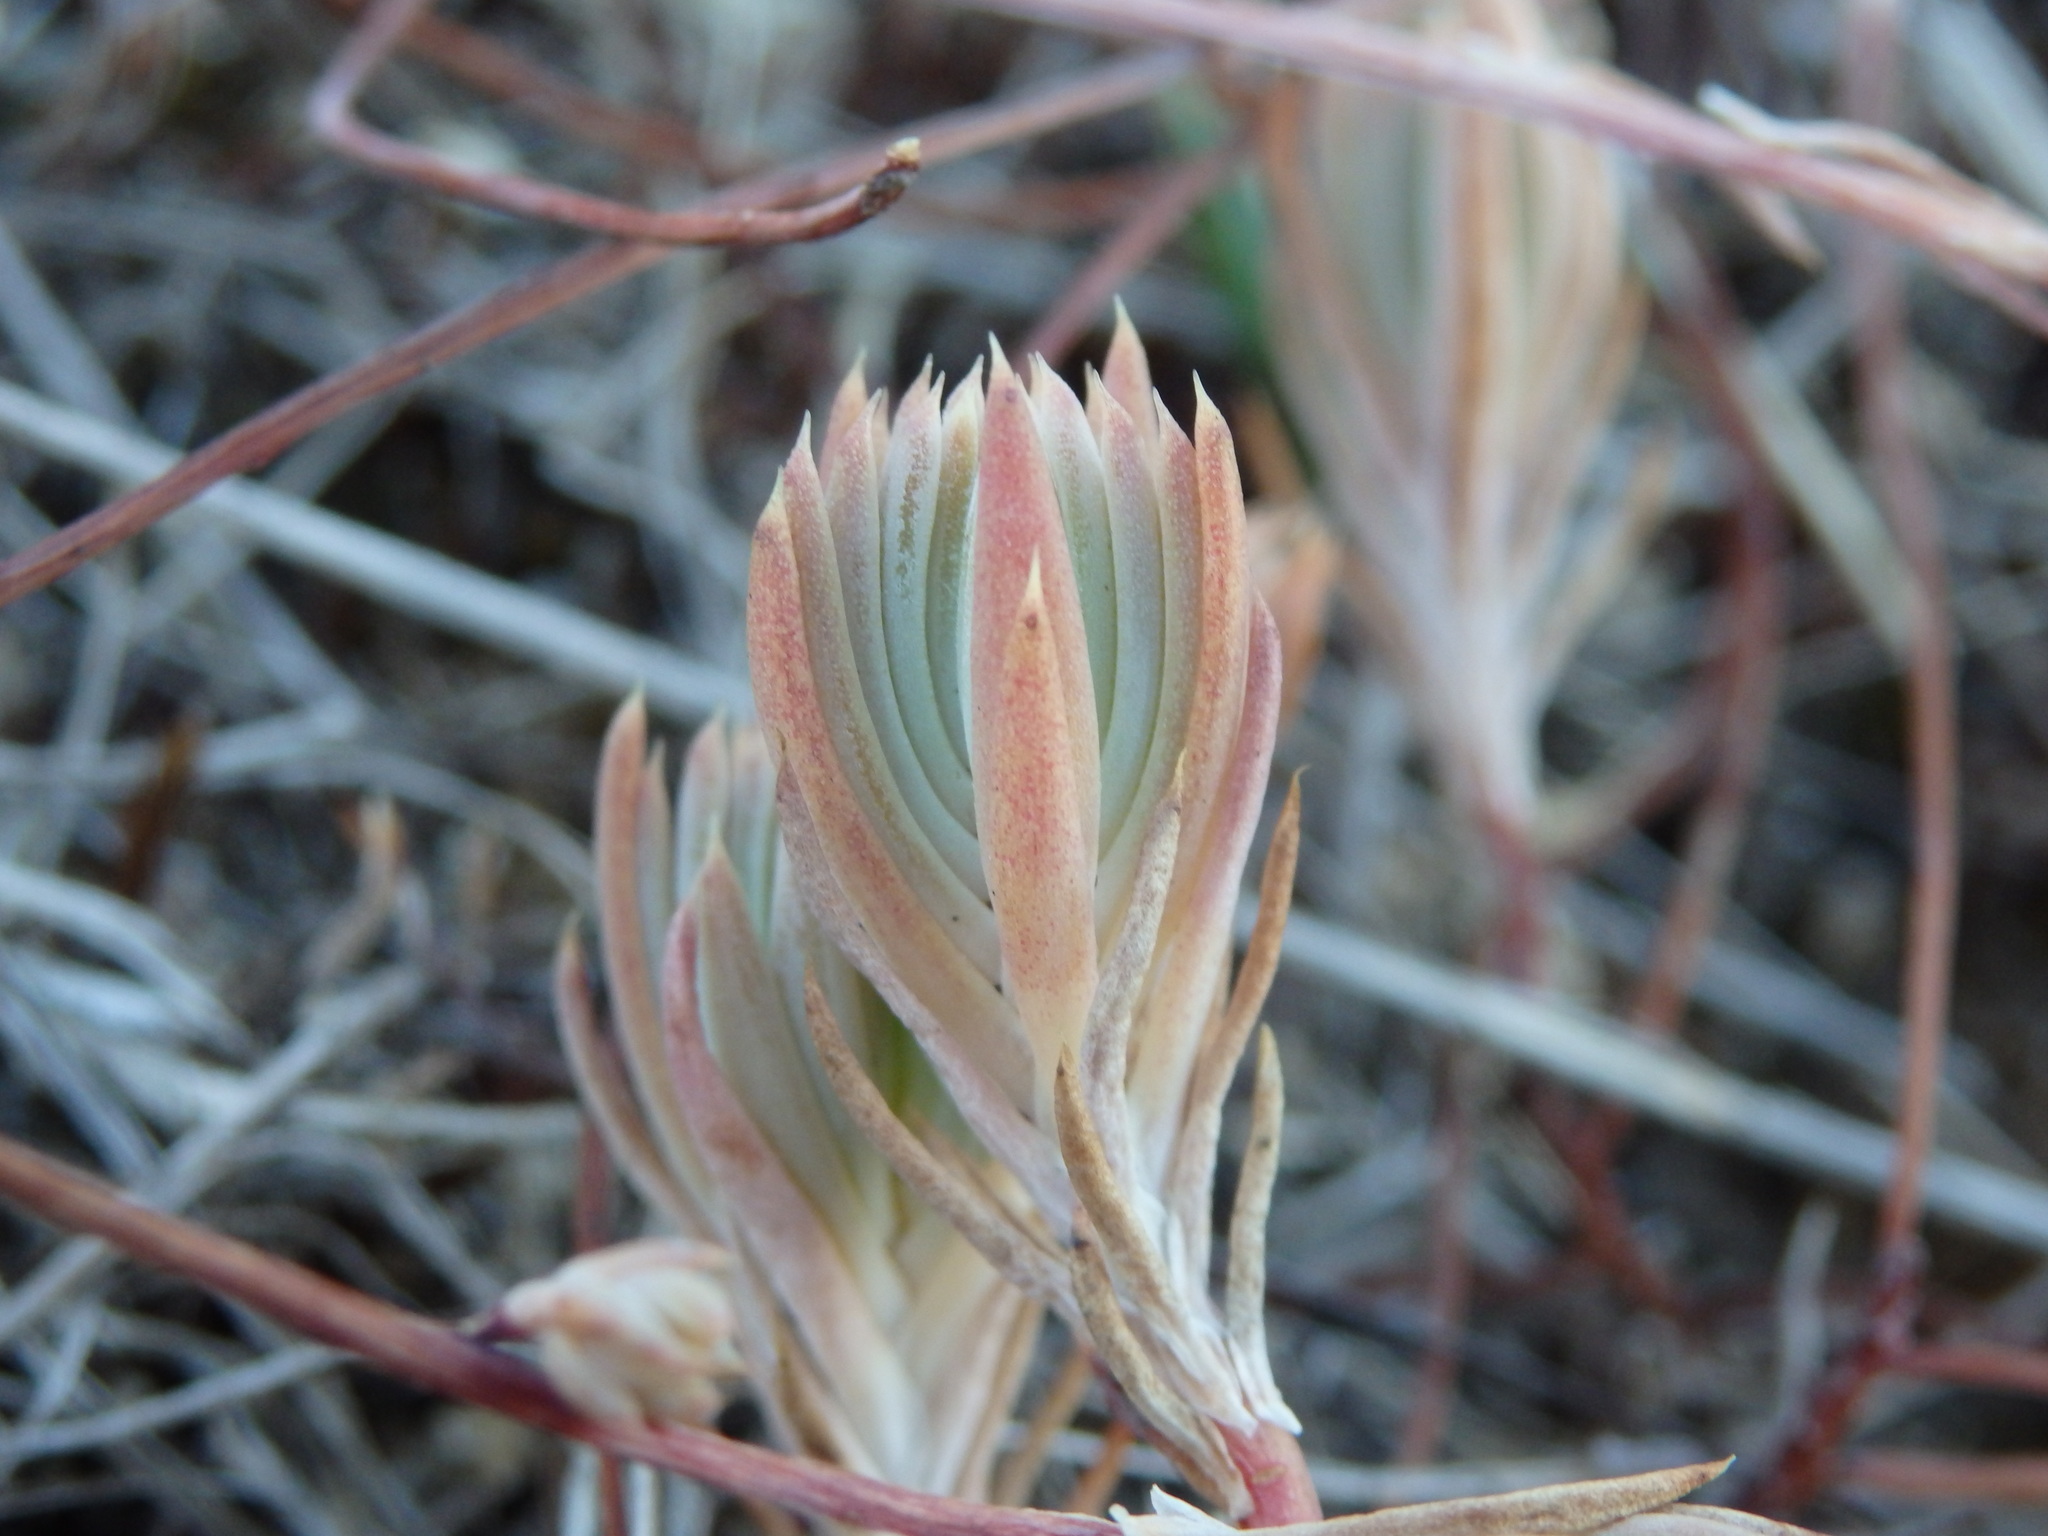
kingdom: Plantae
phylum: Tracheophyta
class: Magnoliopsida
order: Saxifragales
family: Crassulaceae
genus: Petrosedum
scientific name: Petrosedum pruinatum
